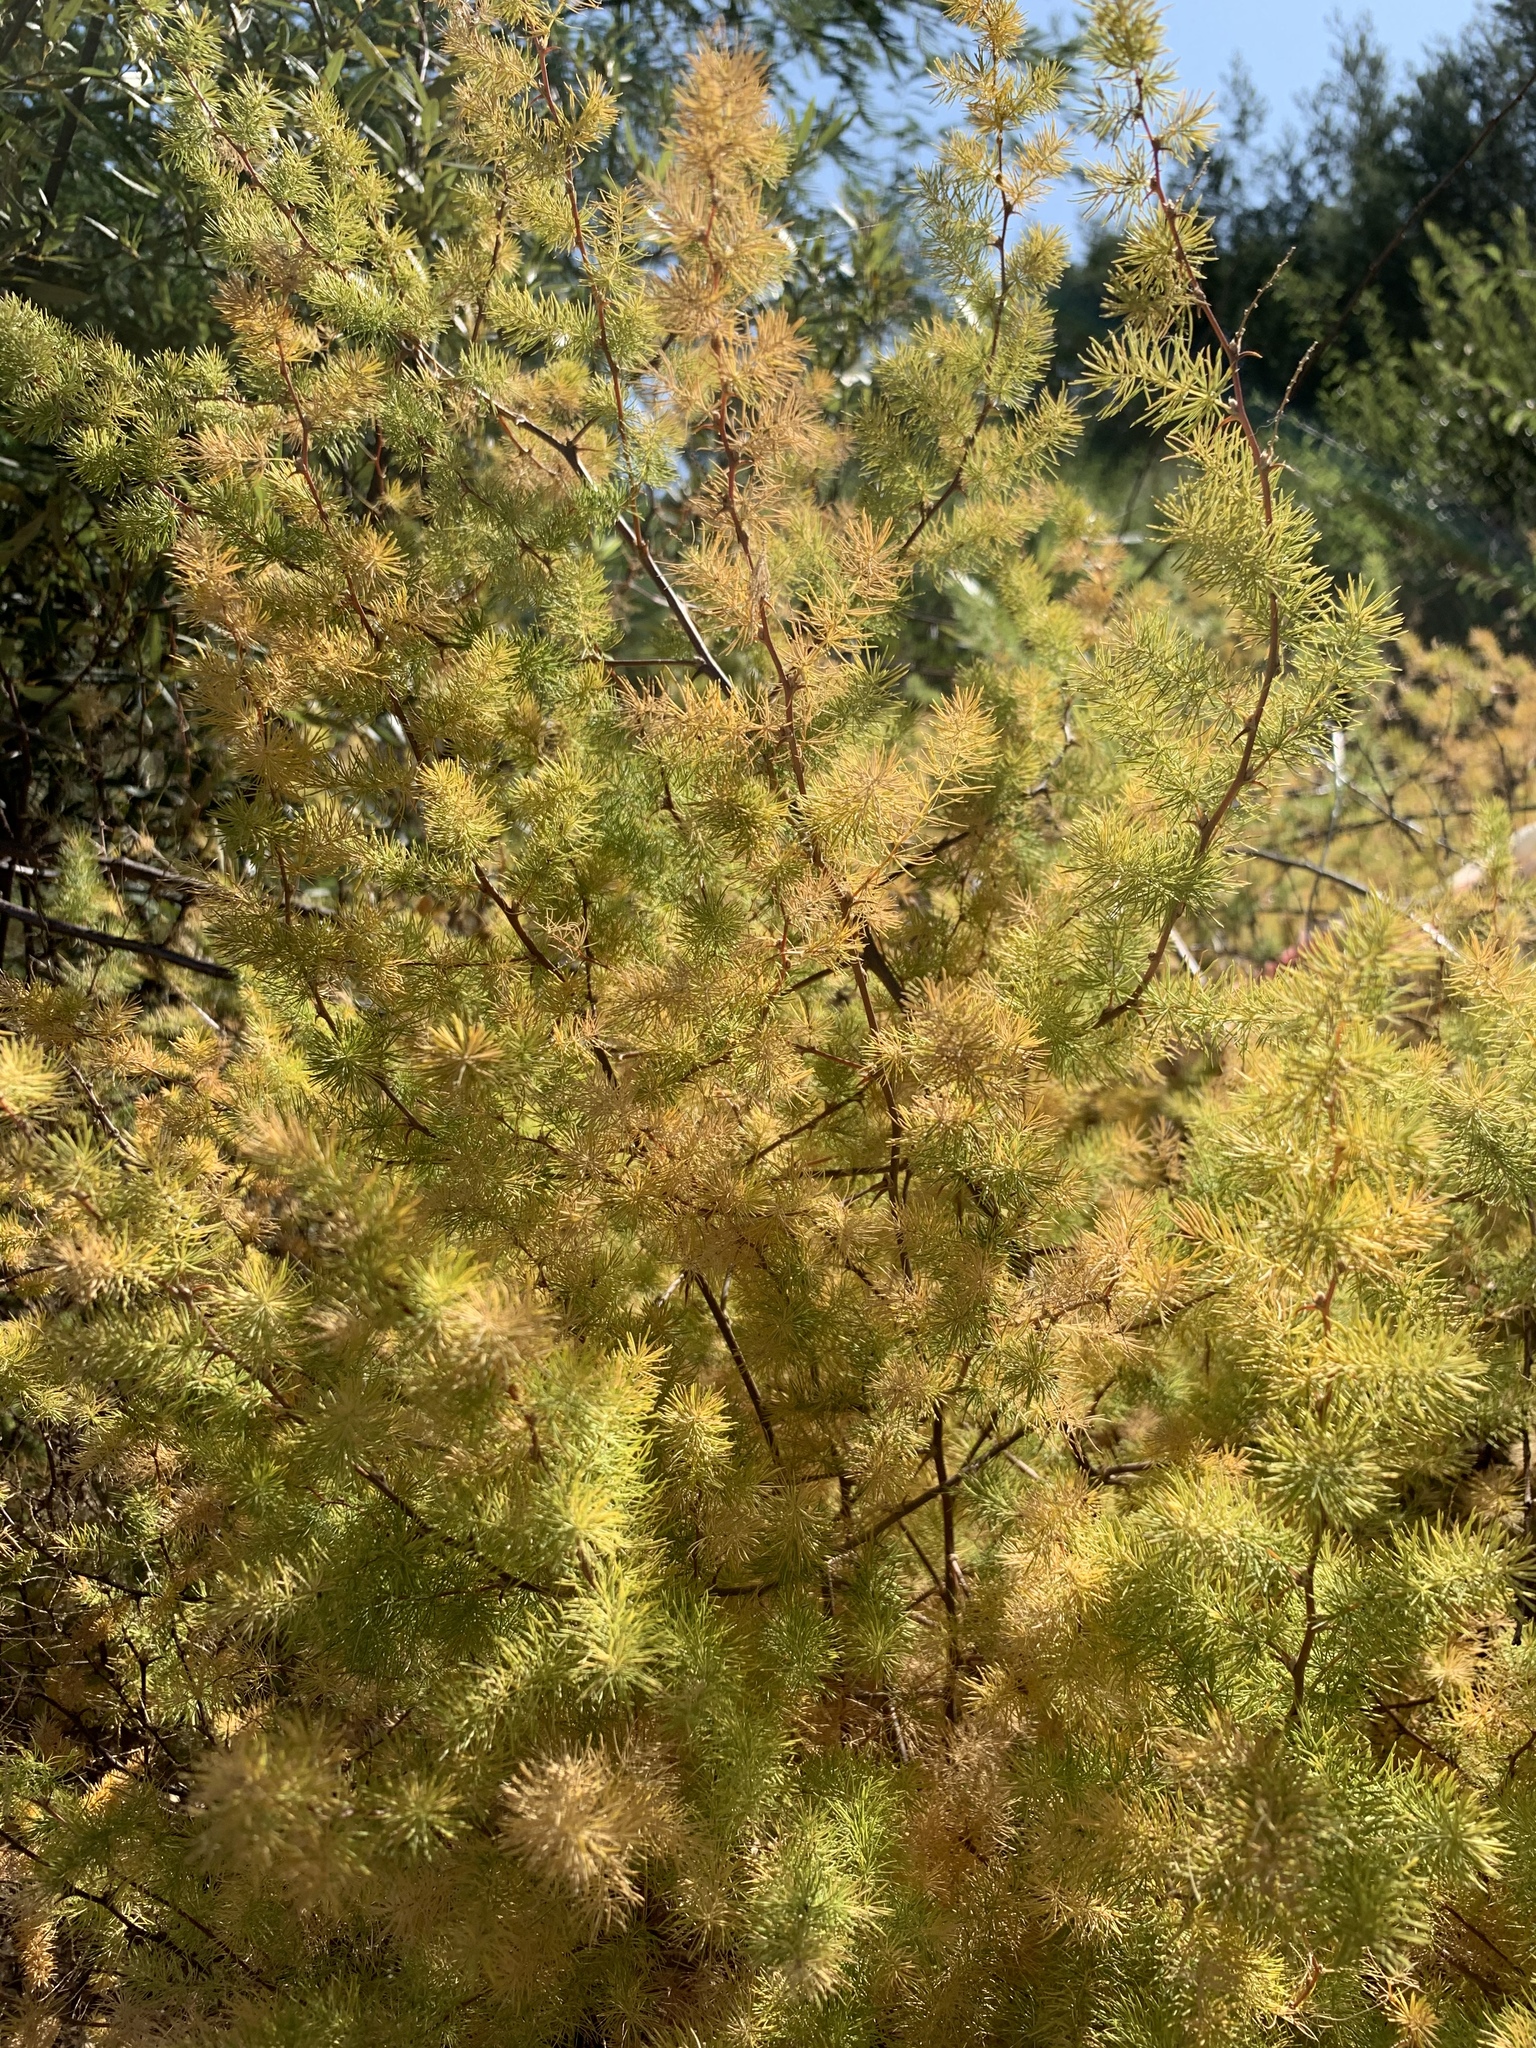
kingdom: Plantae
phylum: Tracheophyta
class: Liliopsida
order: Asparagales
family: Asparagaceae
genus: Asparagus
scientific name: Asparagus rubicundus
